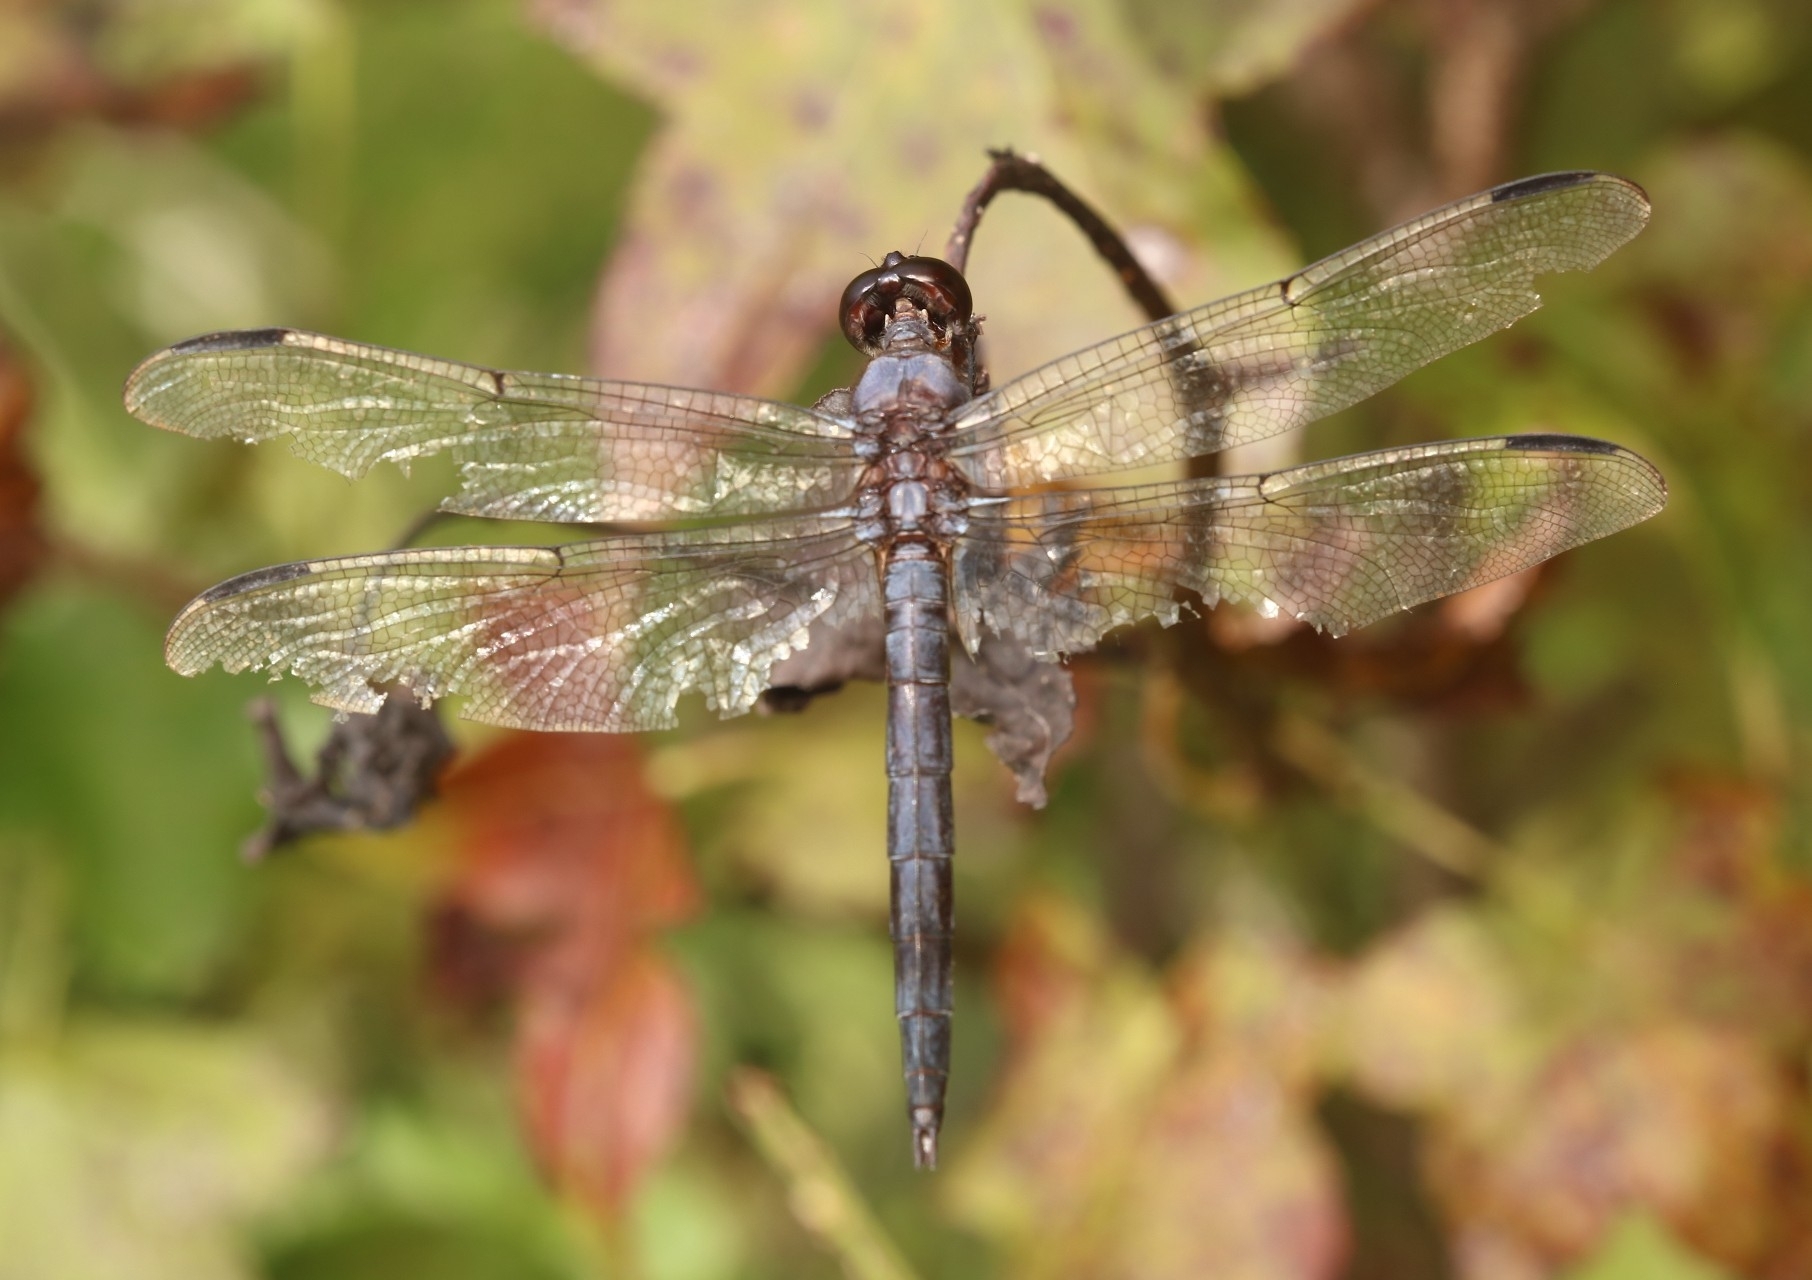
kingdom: Animalia
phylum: Arthropoda
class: Insecta
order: Odonata
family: Libellulidae
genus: Libellula
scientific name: Libellula incesta
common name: Slaty skimmer
